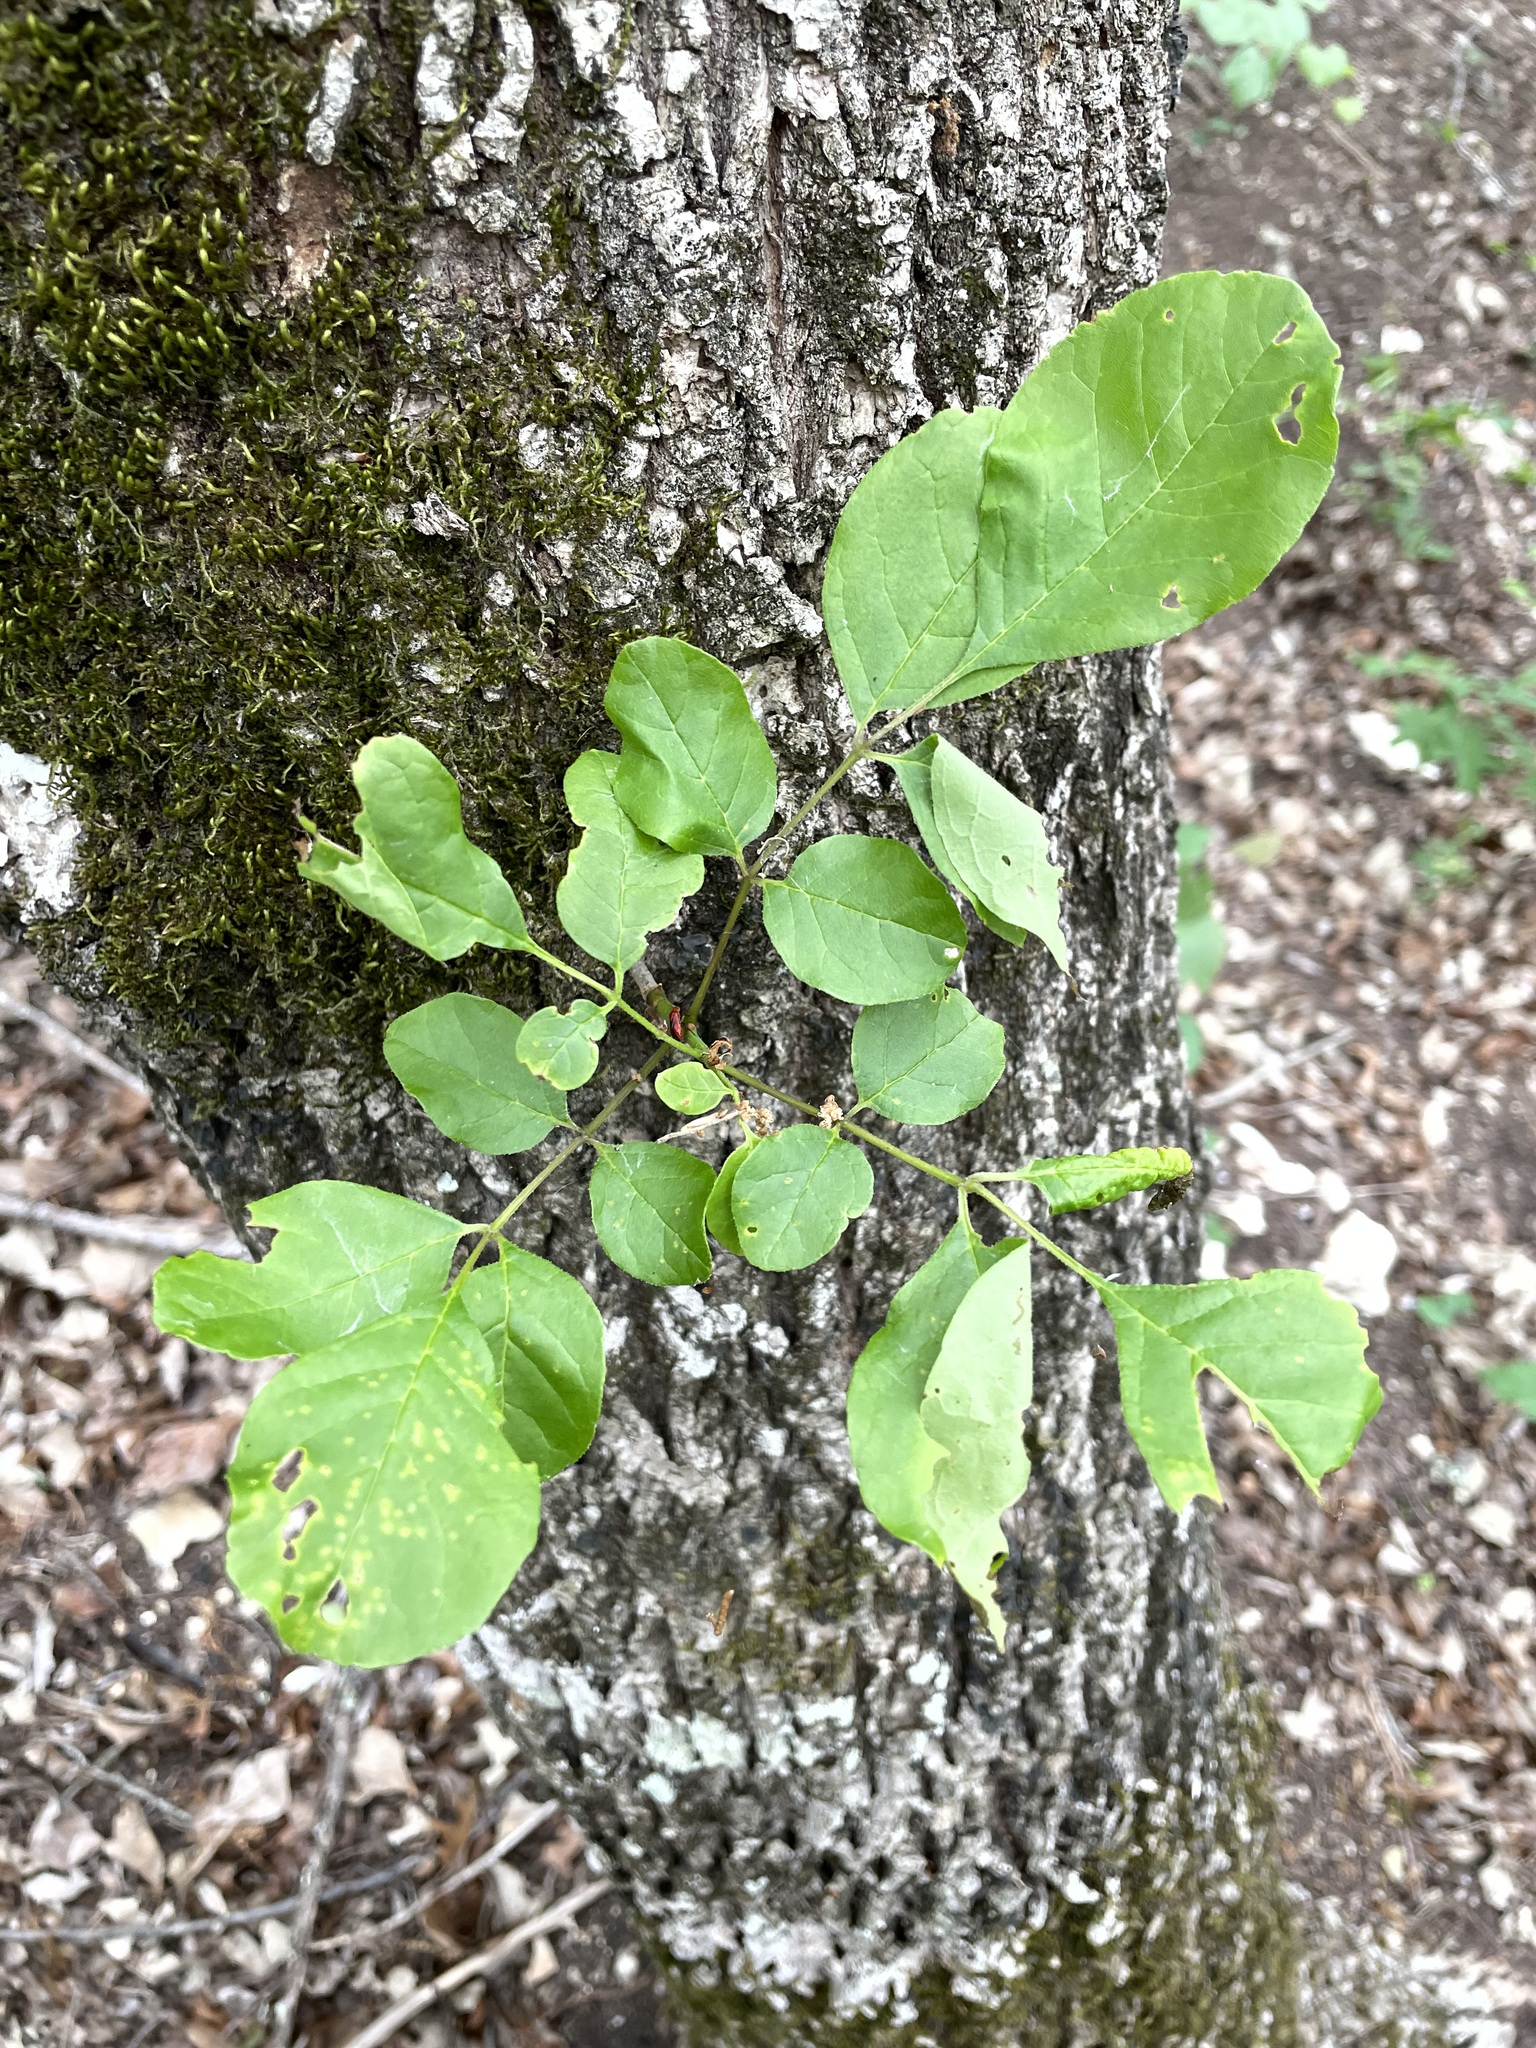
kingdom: Plantae
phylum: Tracheophyta
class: Magnoliopsida
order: Lamiales
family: Oleaceae
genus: Fraxinus
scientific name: Fraxinus albicans
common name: Texas ash
